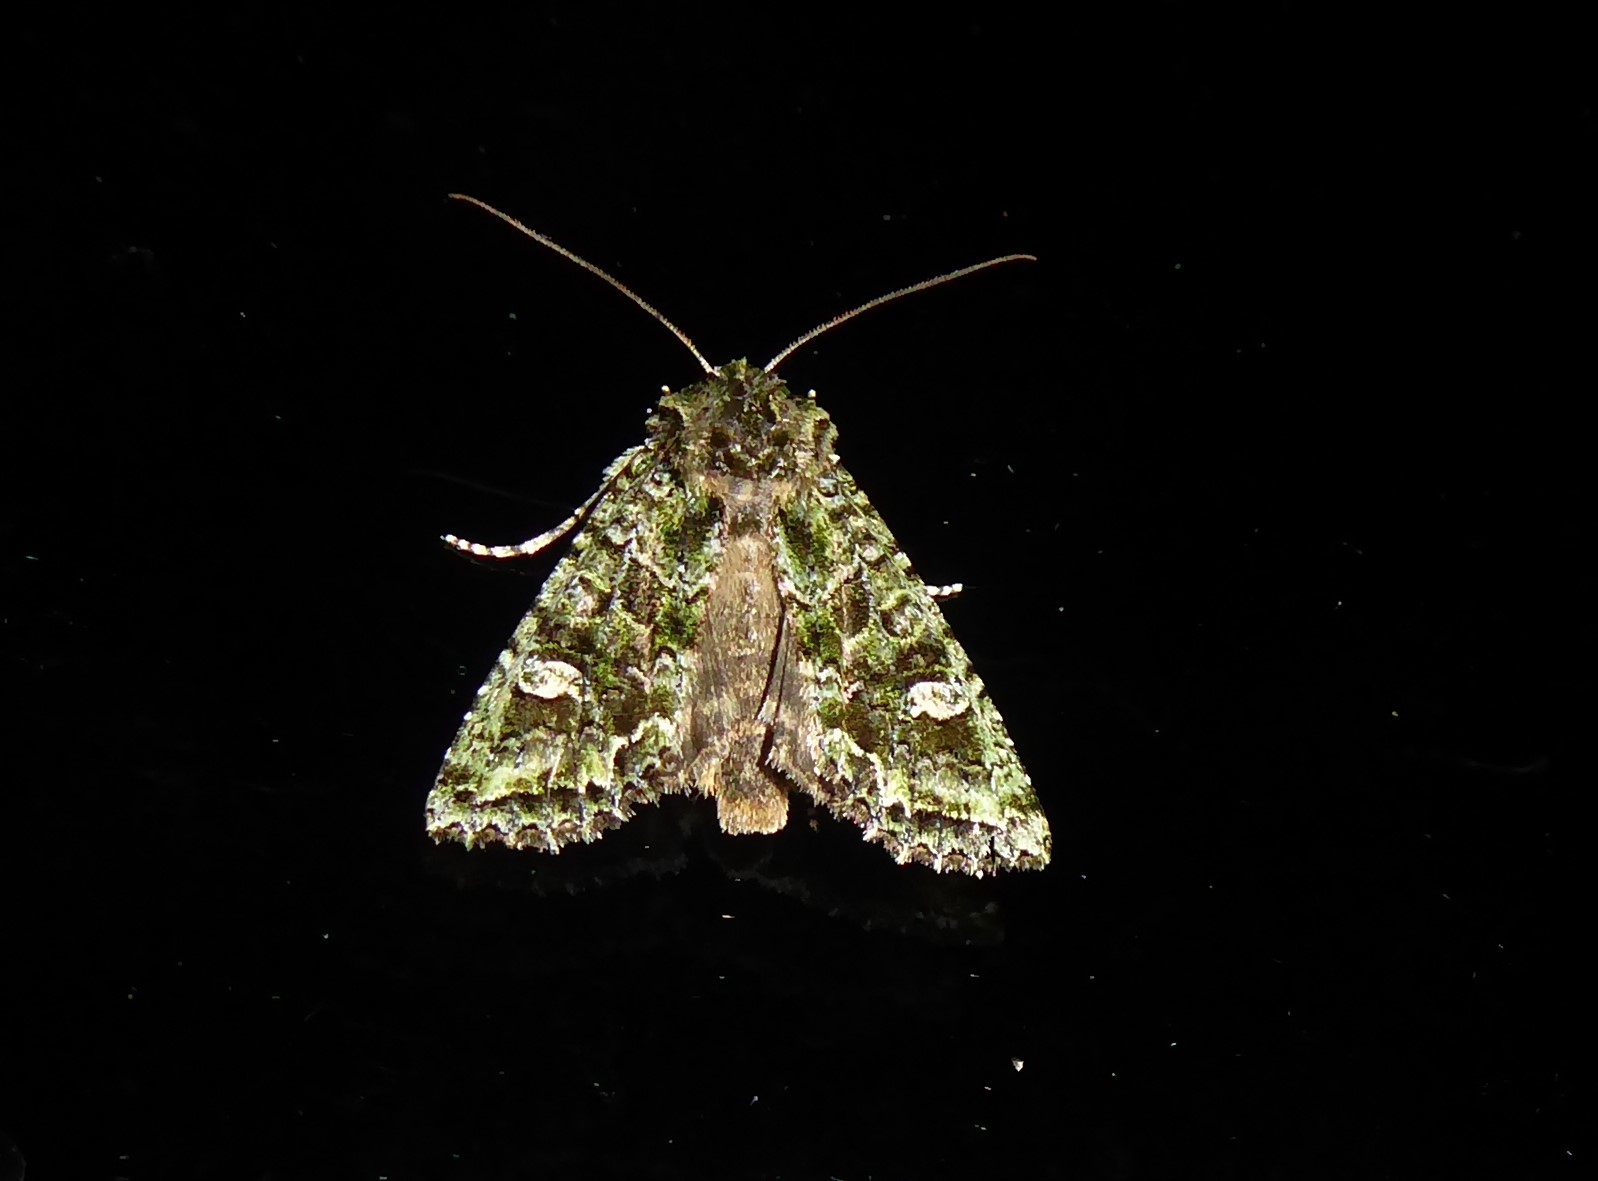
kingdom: Animalia
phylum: Arthropoda
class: Insecta
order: Lepidoptera
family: Noctuidae
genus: Ichneutica
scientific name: Ichneutica
